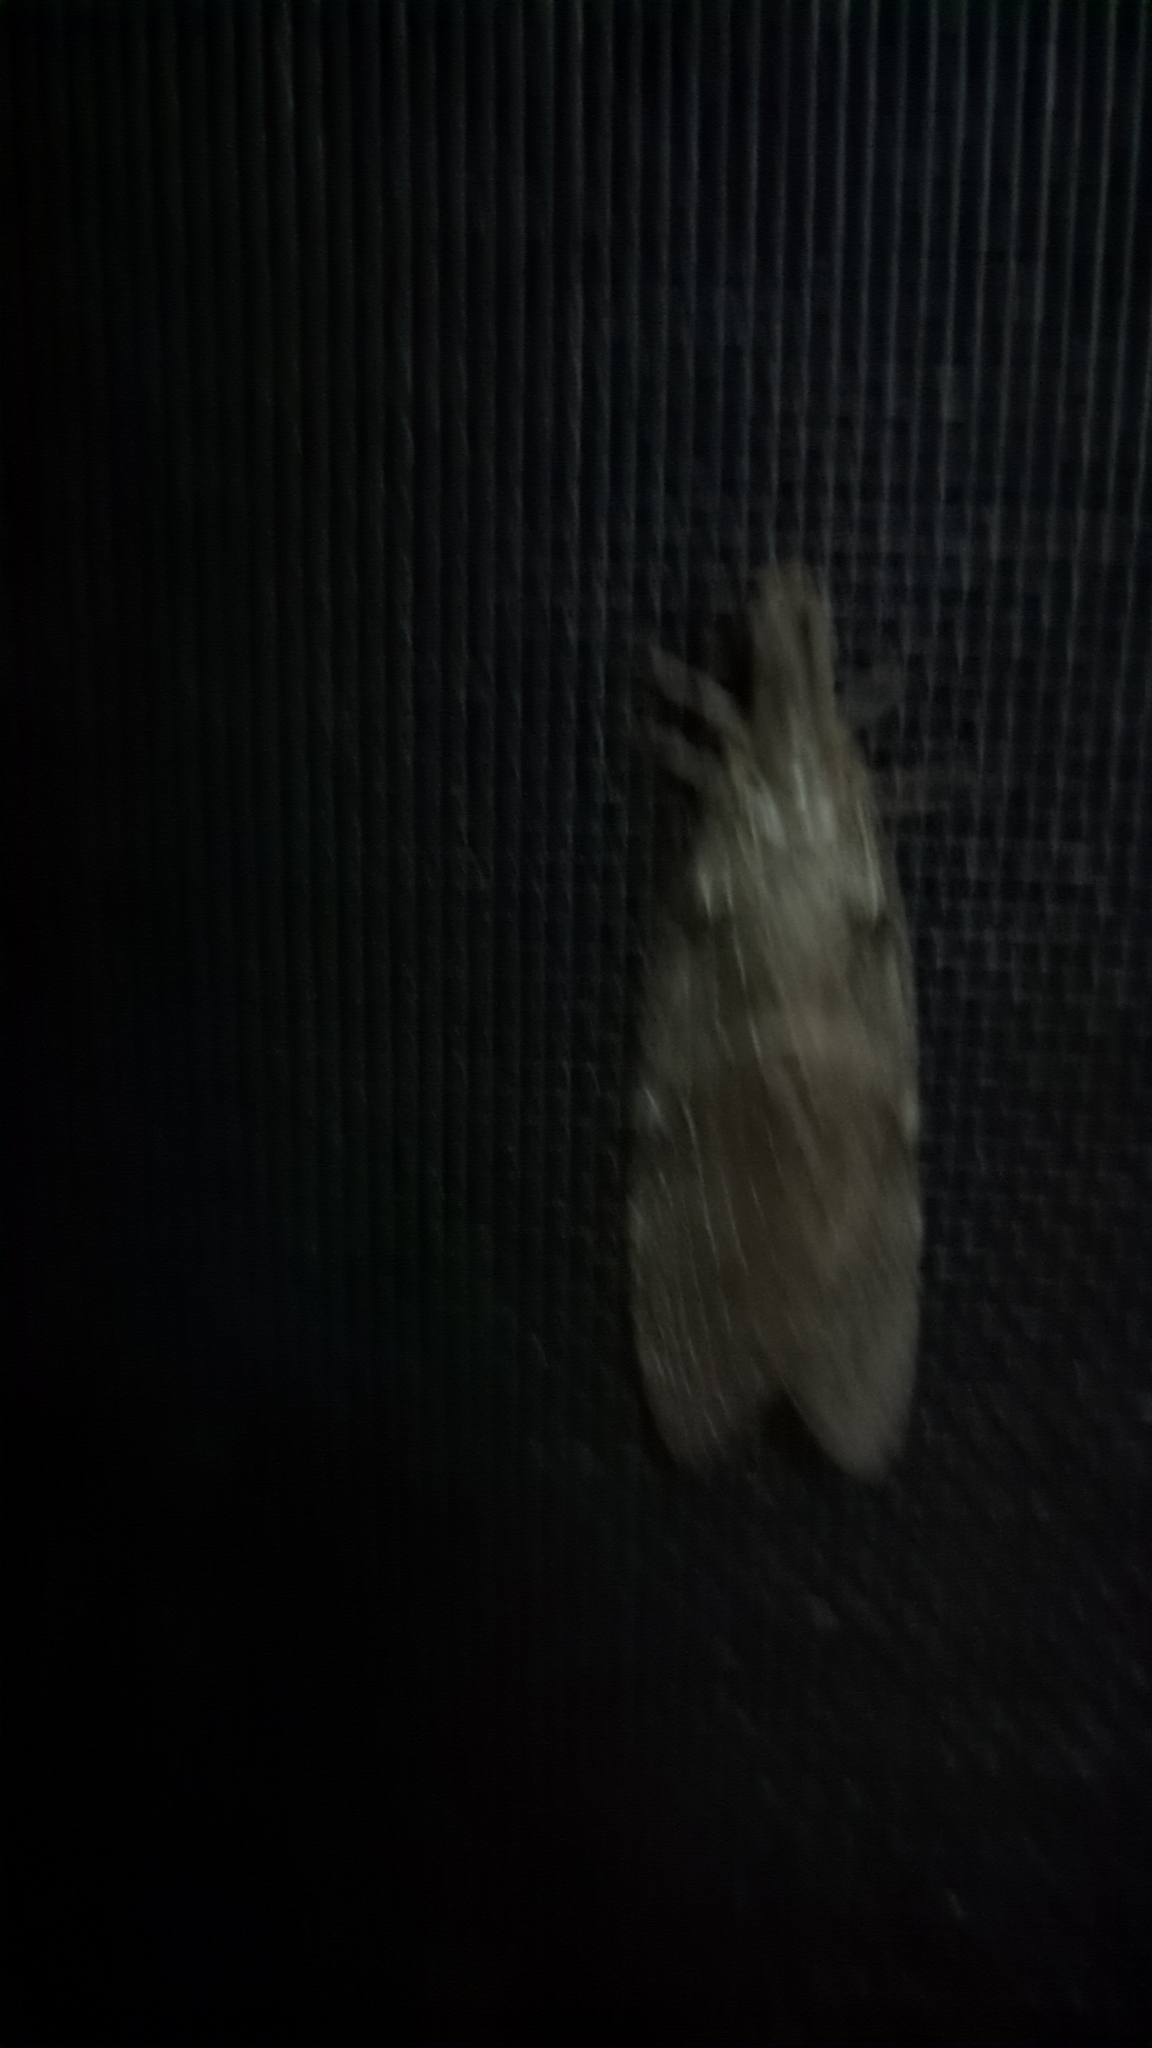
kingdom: Animalia
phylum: Arthropoda
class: Insecta
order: Megaloptera
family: Corydalidae
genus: Chauliodes
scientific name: Chauliodes pectinicornis
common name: Summer fishfly
